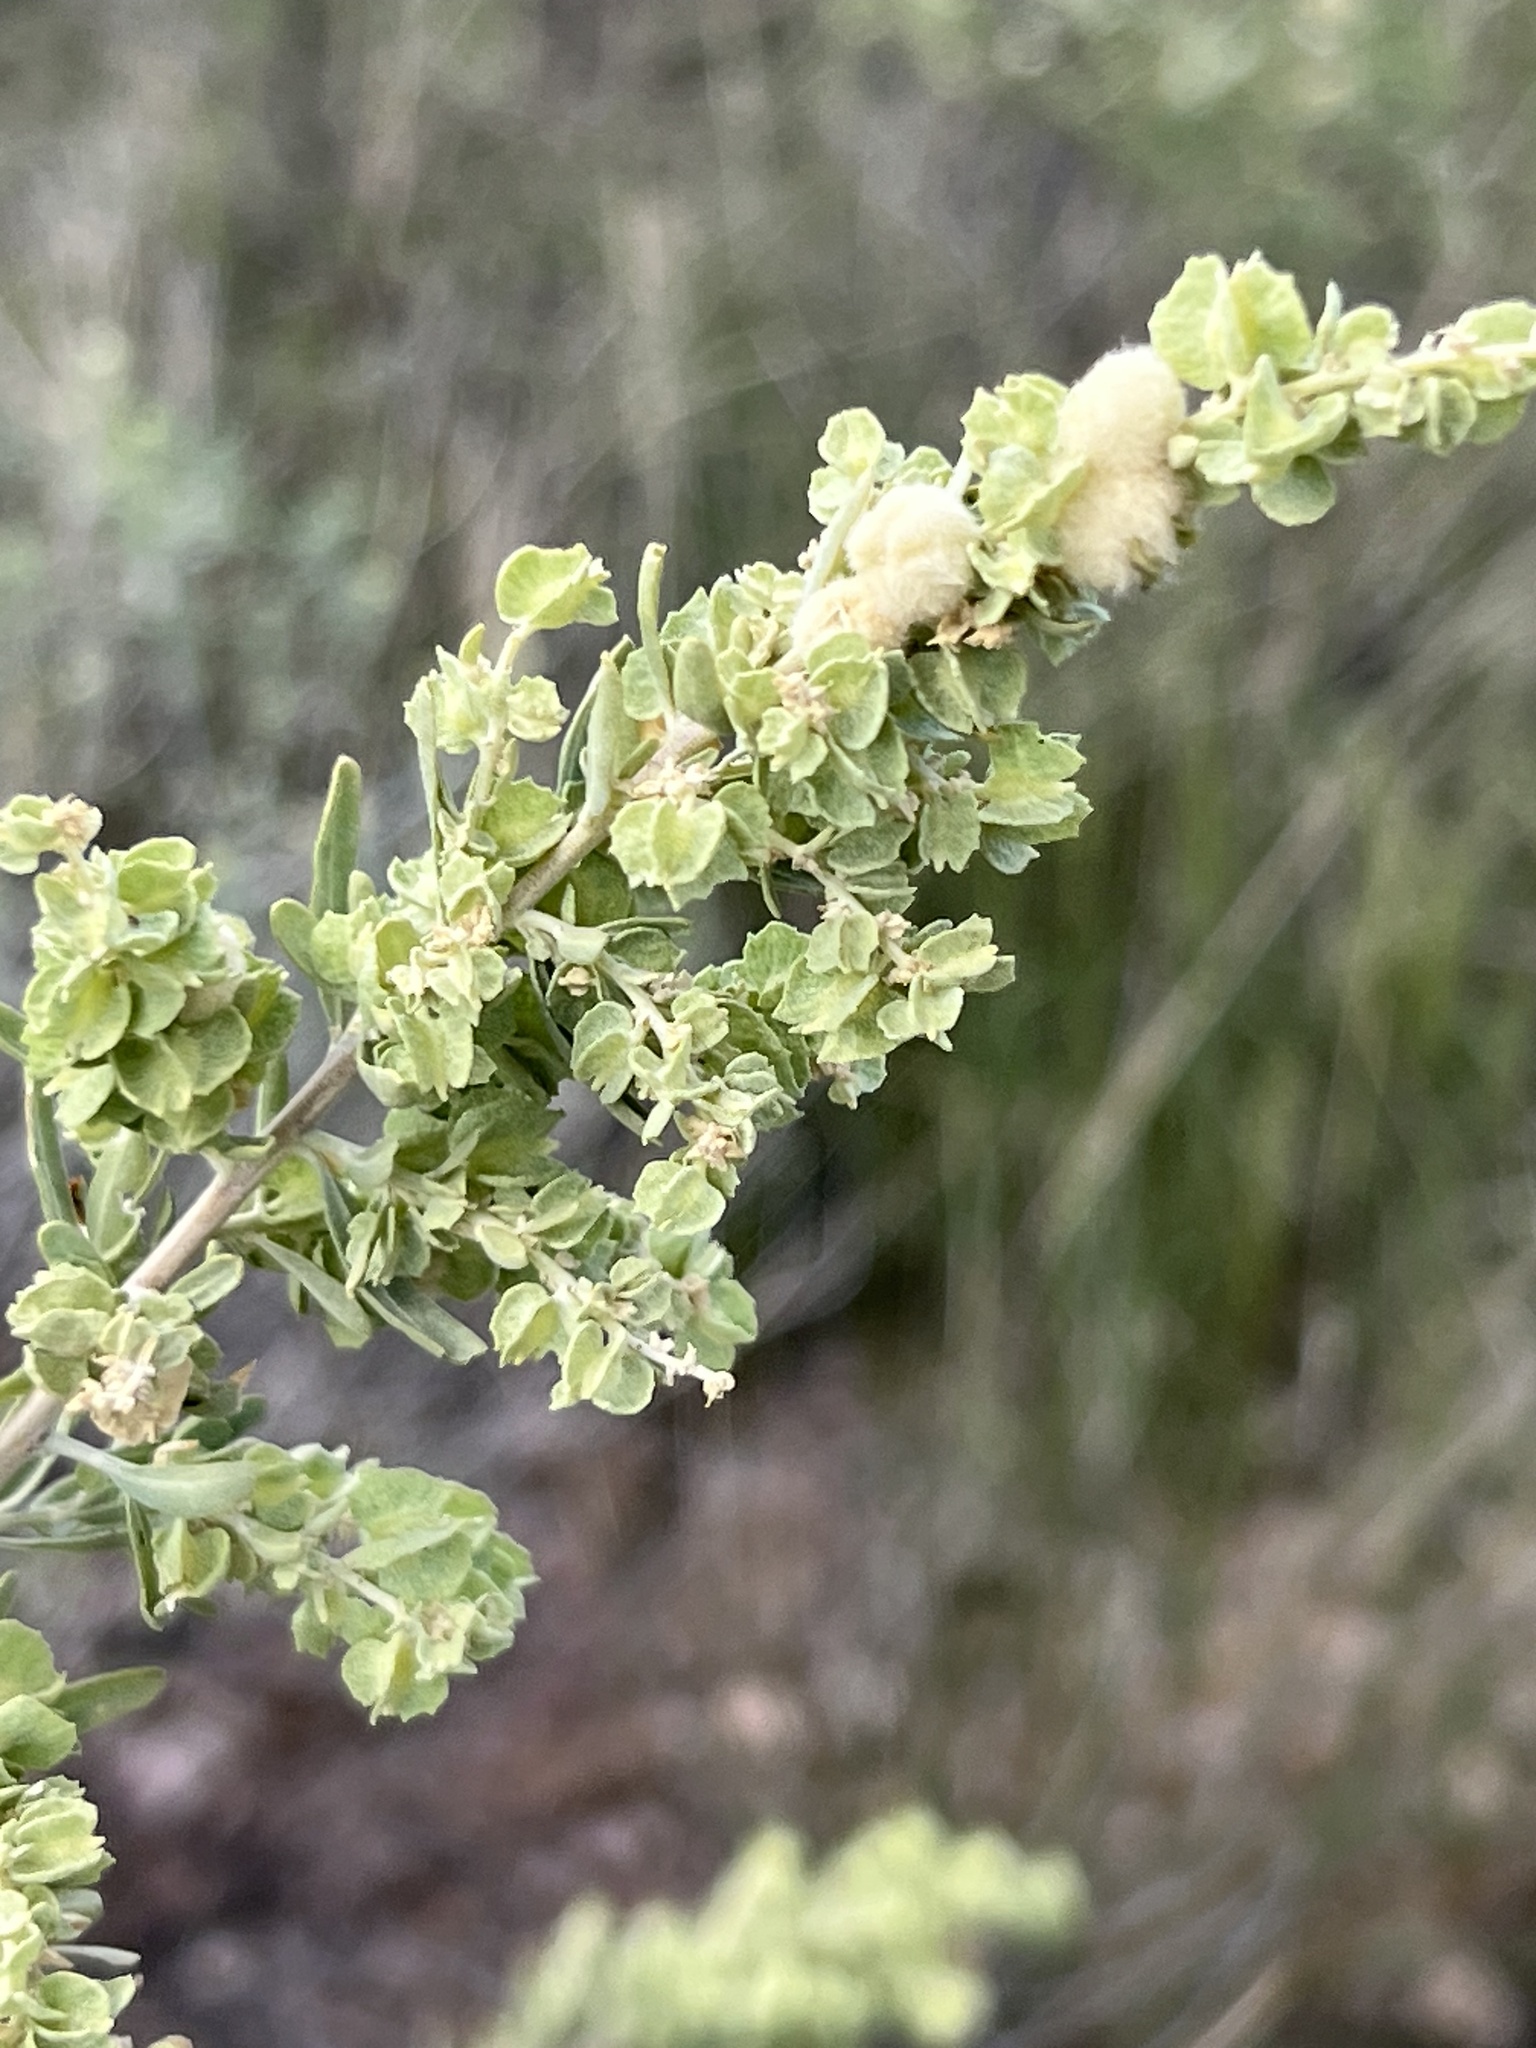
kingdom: Plantae
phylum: Tracheophyta
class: Magnoliopsida
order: Caryophyllales
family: Amaranthaceae
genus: Atriplex
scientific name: Atriplex canescens
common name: Four-wing saltbush
